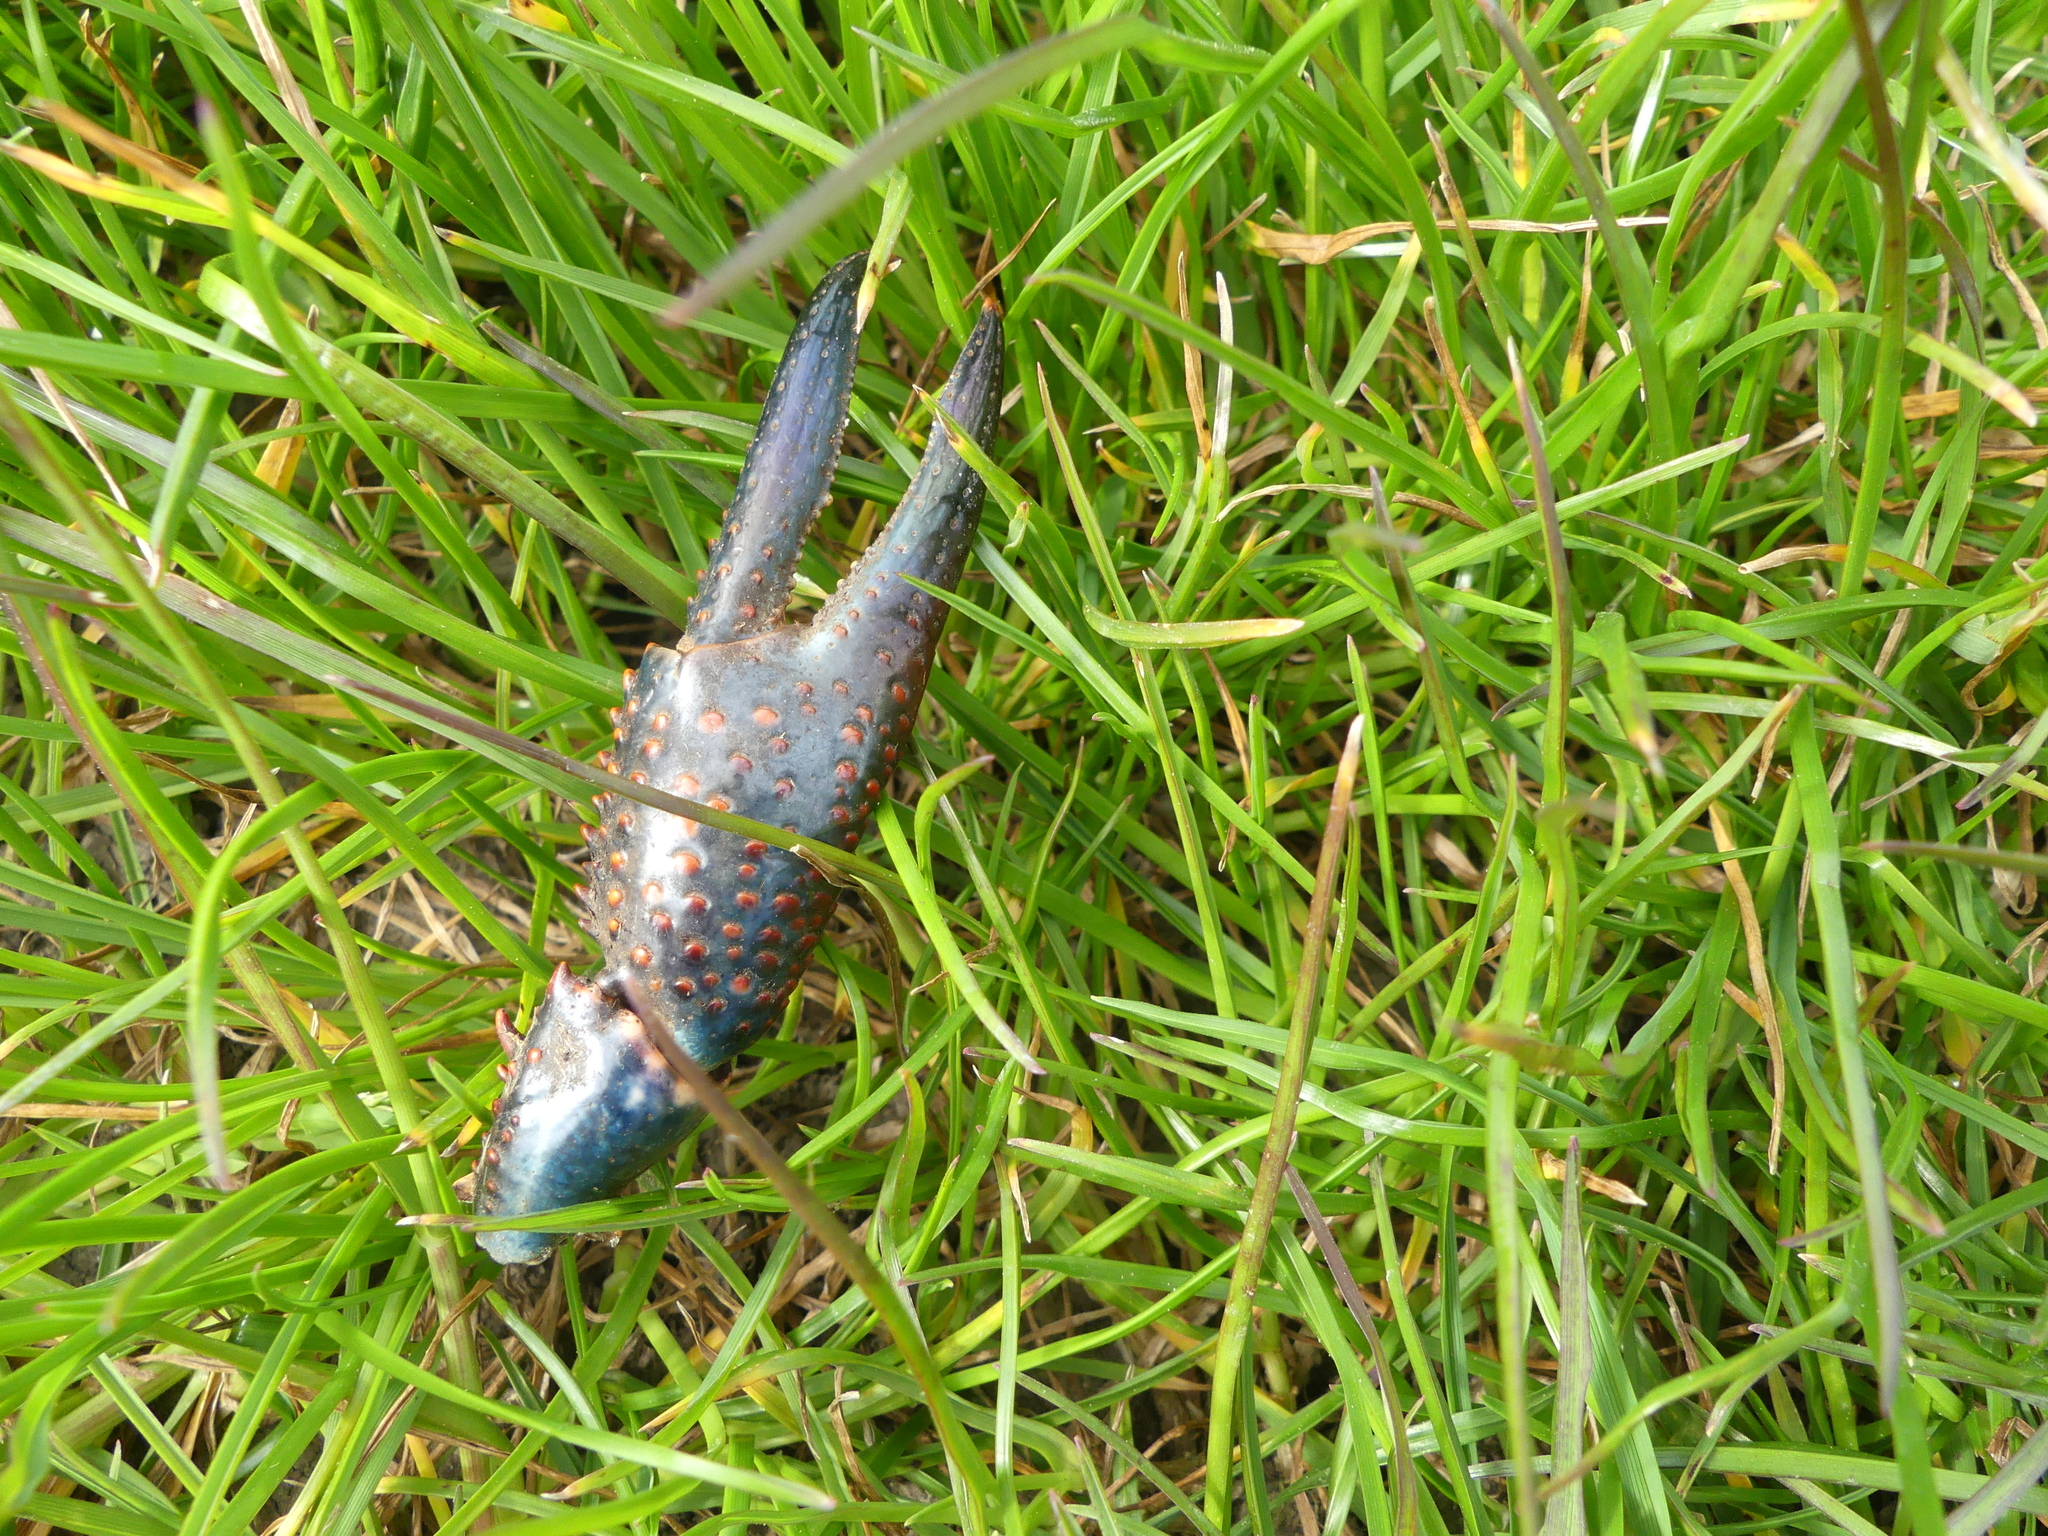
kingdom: Animalia
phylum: Arthropoda
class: Malacostraca
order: Decapoda
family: Cambaridae
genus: Procambarus
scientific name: Procambarus clarkii
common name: Red swamp crayfish
